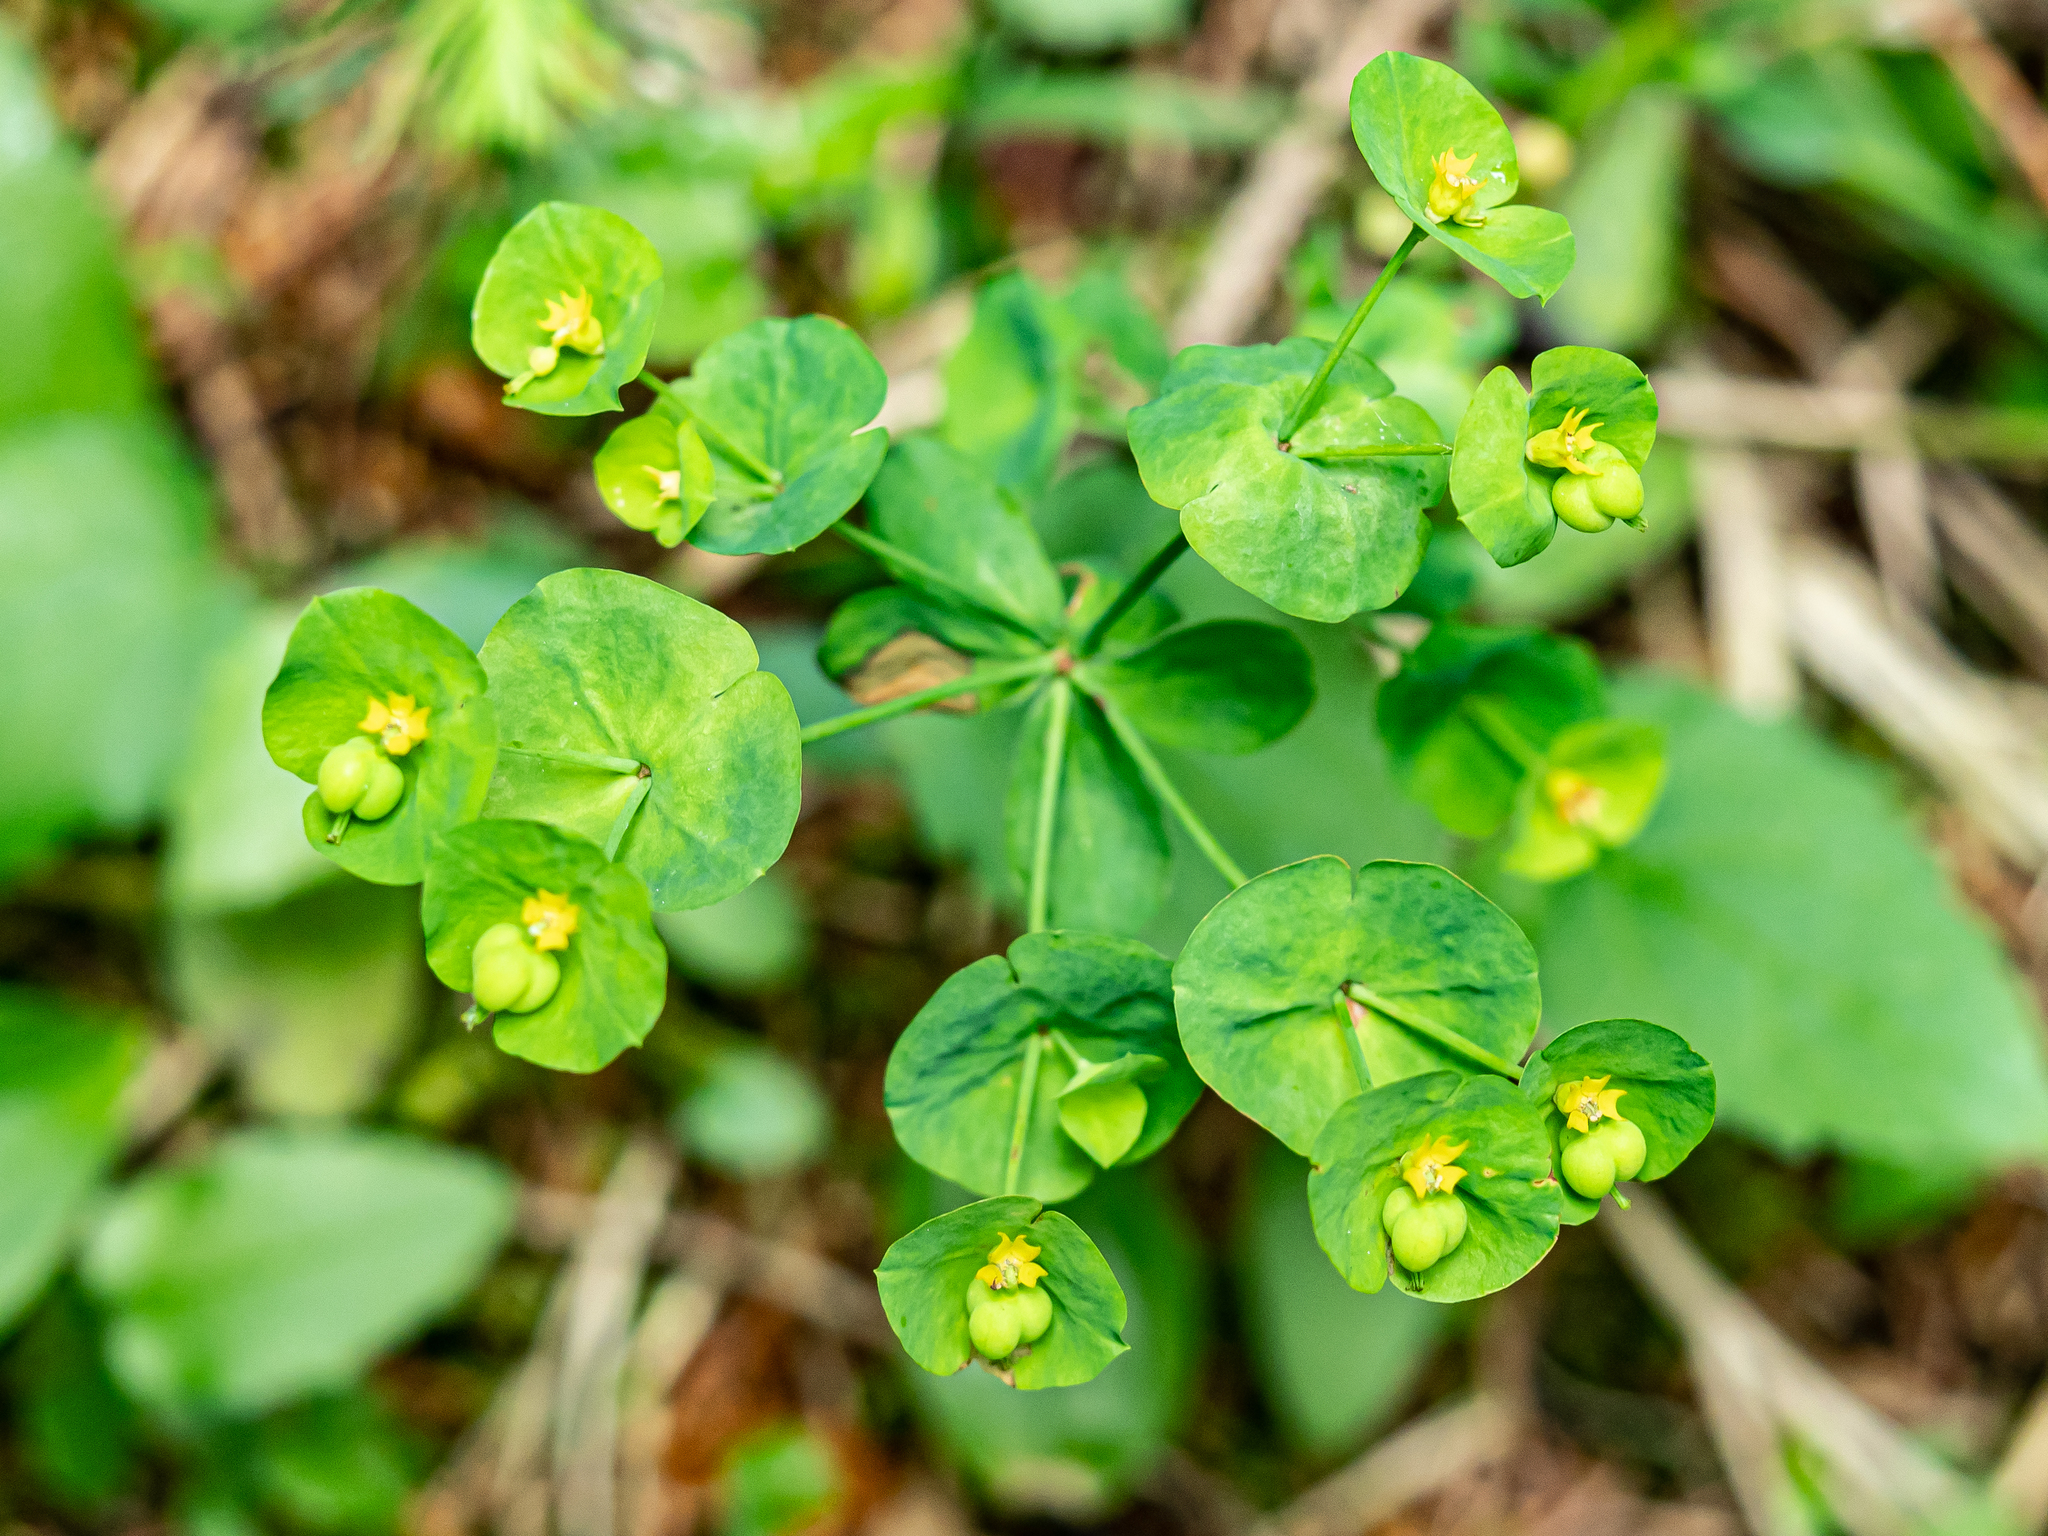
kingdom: Plantae
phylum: Tracheophyta
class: Magnoliopsida
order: Malpighiales
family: Euphorbiaceae
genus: Euphorbia
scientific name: Euphorbia amygdaloides
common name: Wood spurge
